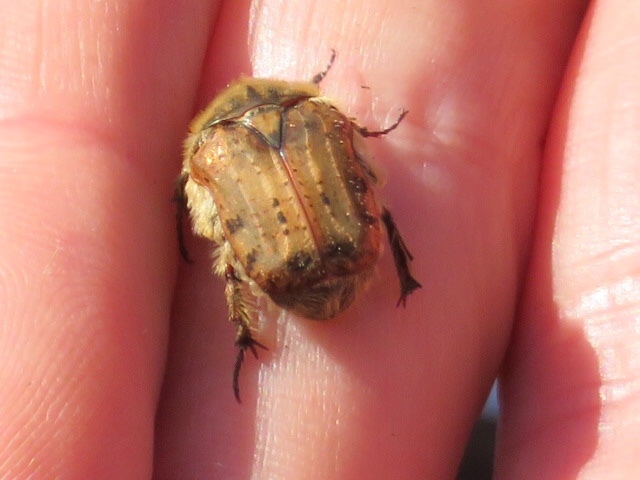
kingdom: Animalia
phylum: Arthropoda
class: Insecta
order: Coleoptera
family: Scarabaeidae
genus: Euphoria
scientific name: Euphoria inda
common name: Bumble flower beetle
